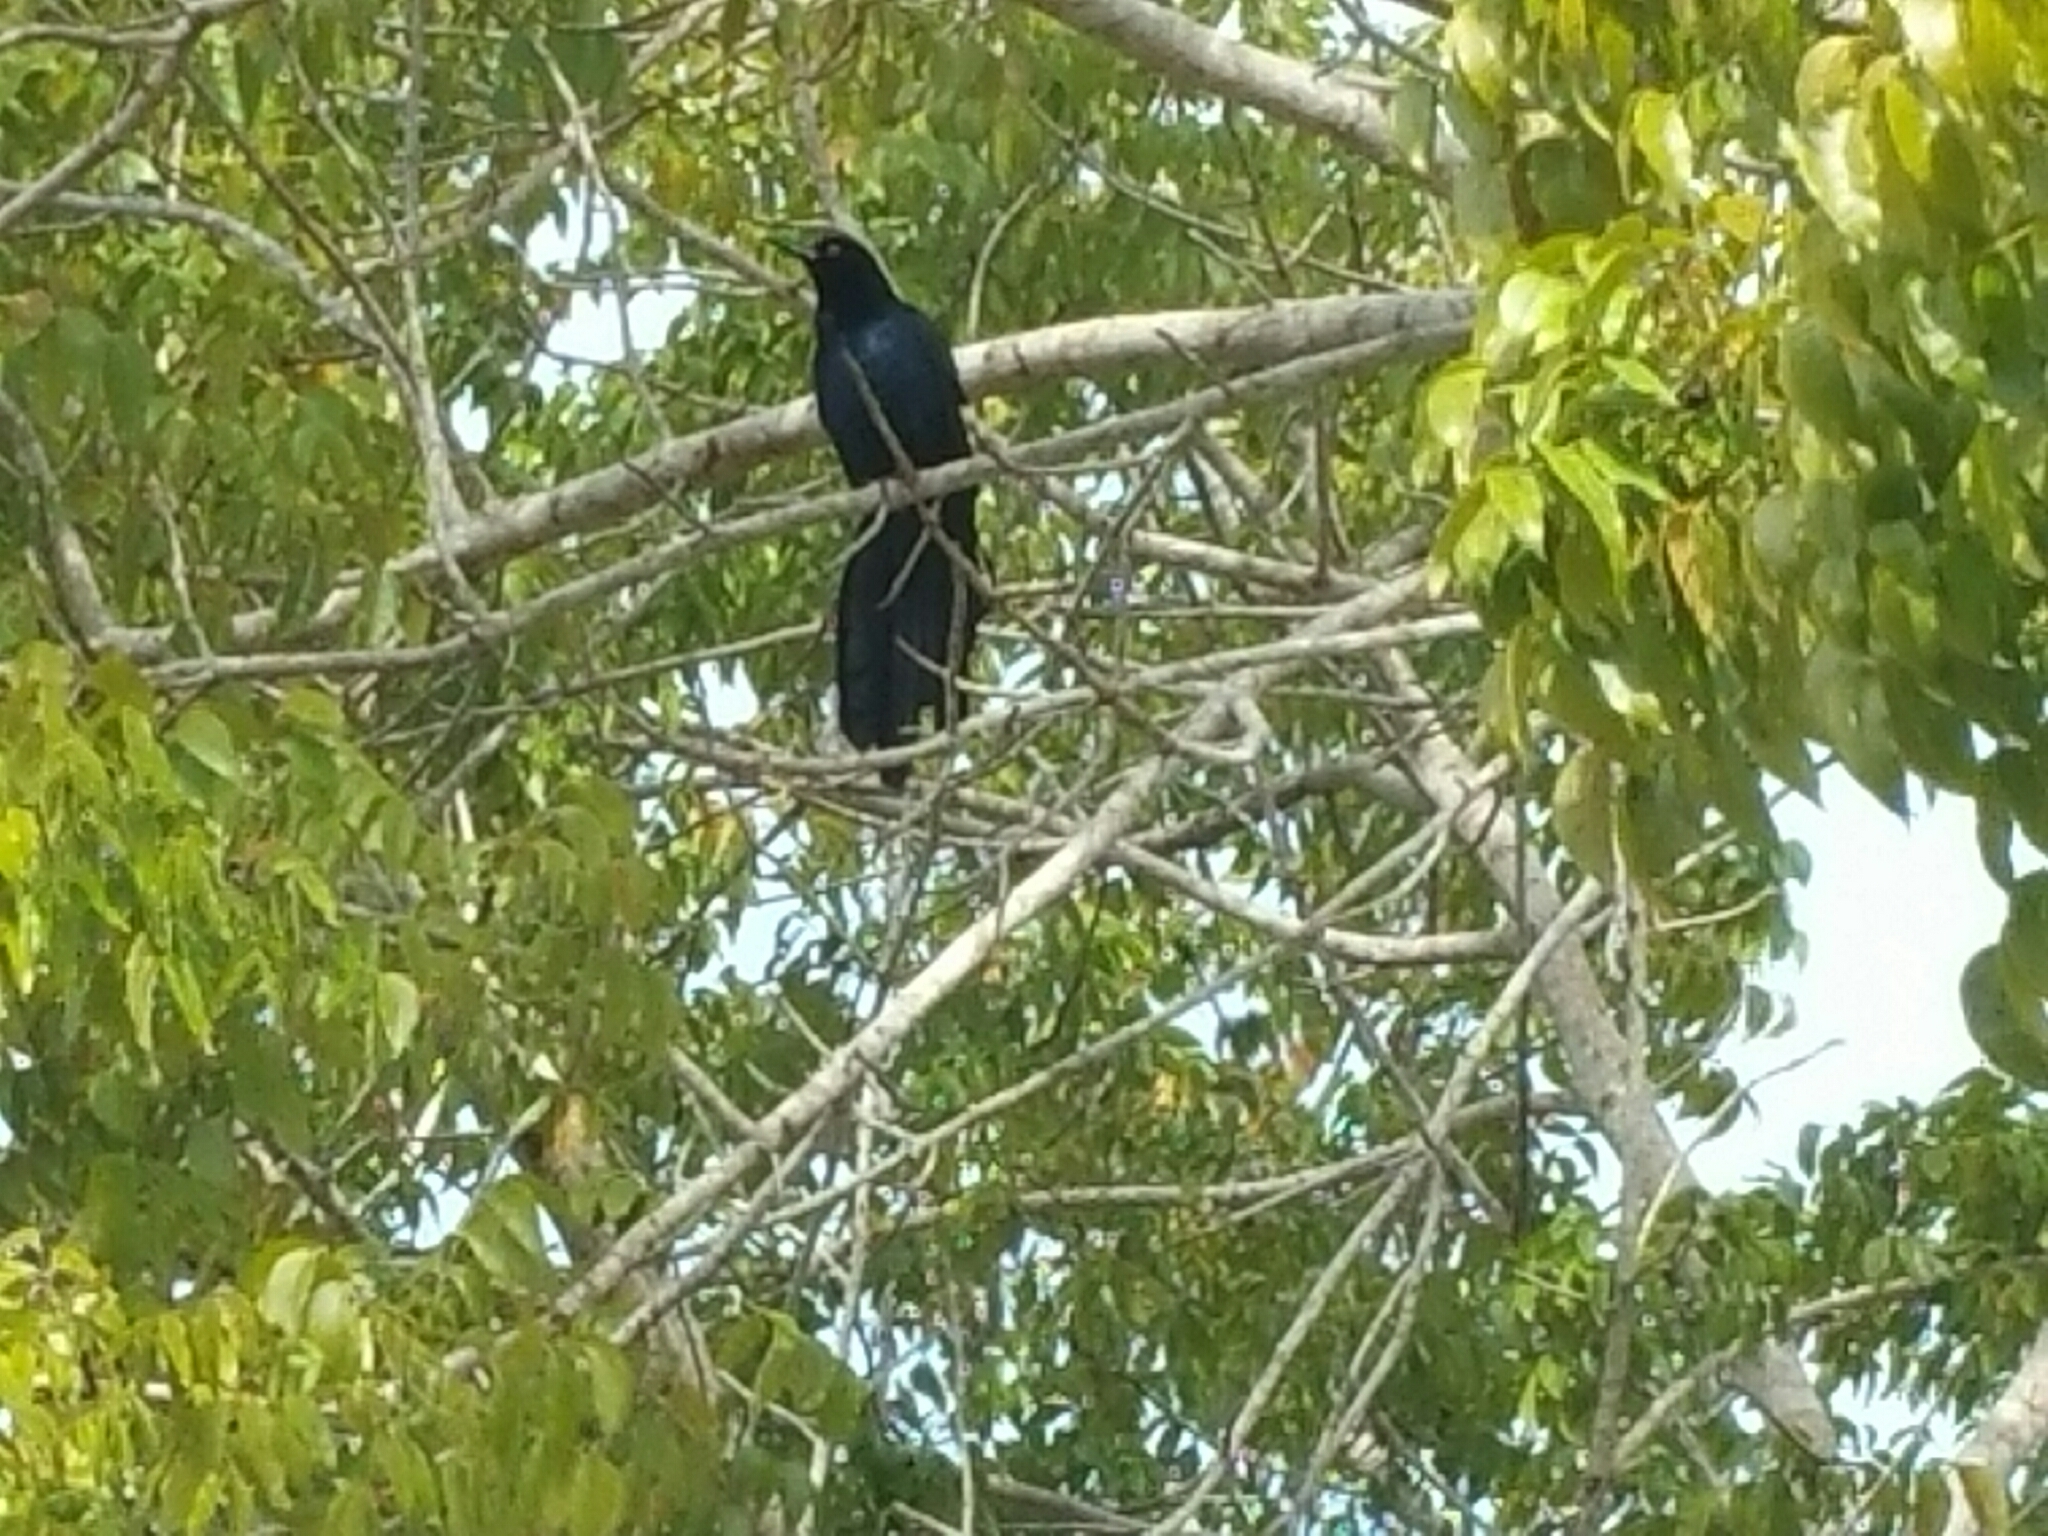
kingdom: Animalia
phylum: Chordata
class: Aves
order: Passeriformes
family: Icteridae
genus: Quiscalus
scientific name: Quiscalus mexicanus
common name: Great-tailed grackle
